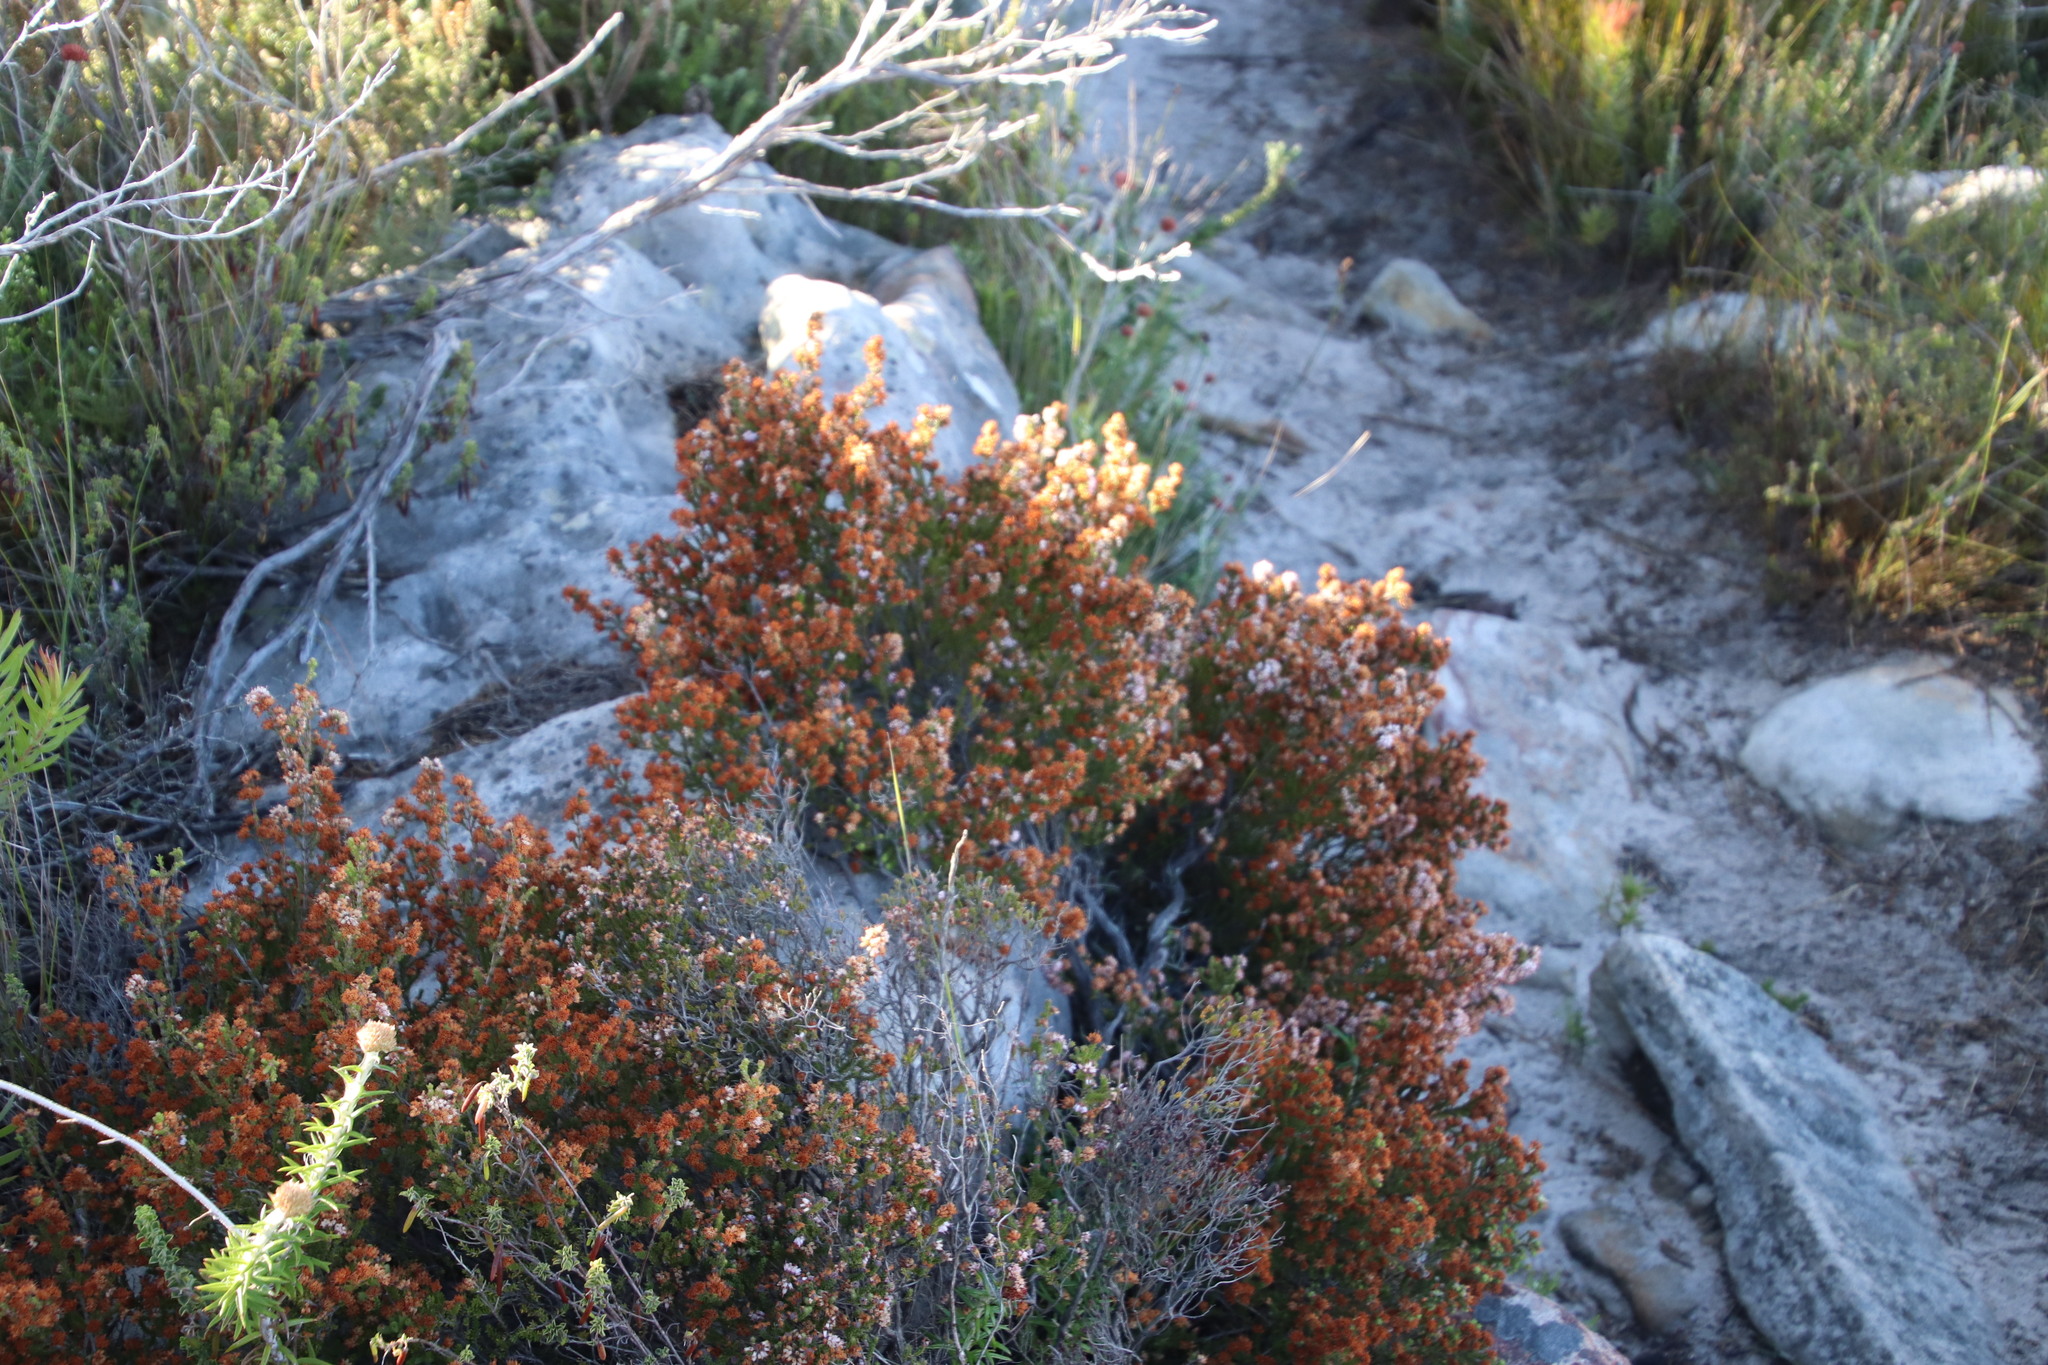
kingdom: Plantae
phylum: Tracheophyta
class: Magnoliopsida
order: Ericales
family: Ericaceae
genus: Erica
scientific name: Erica ericoides
